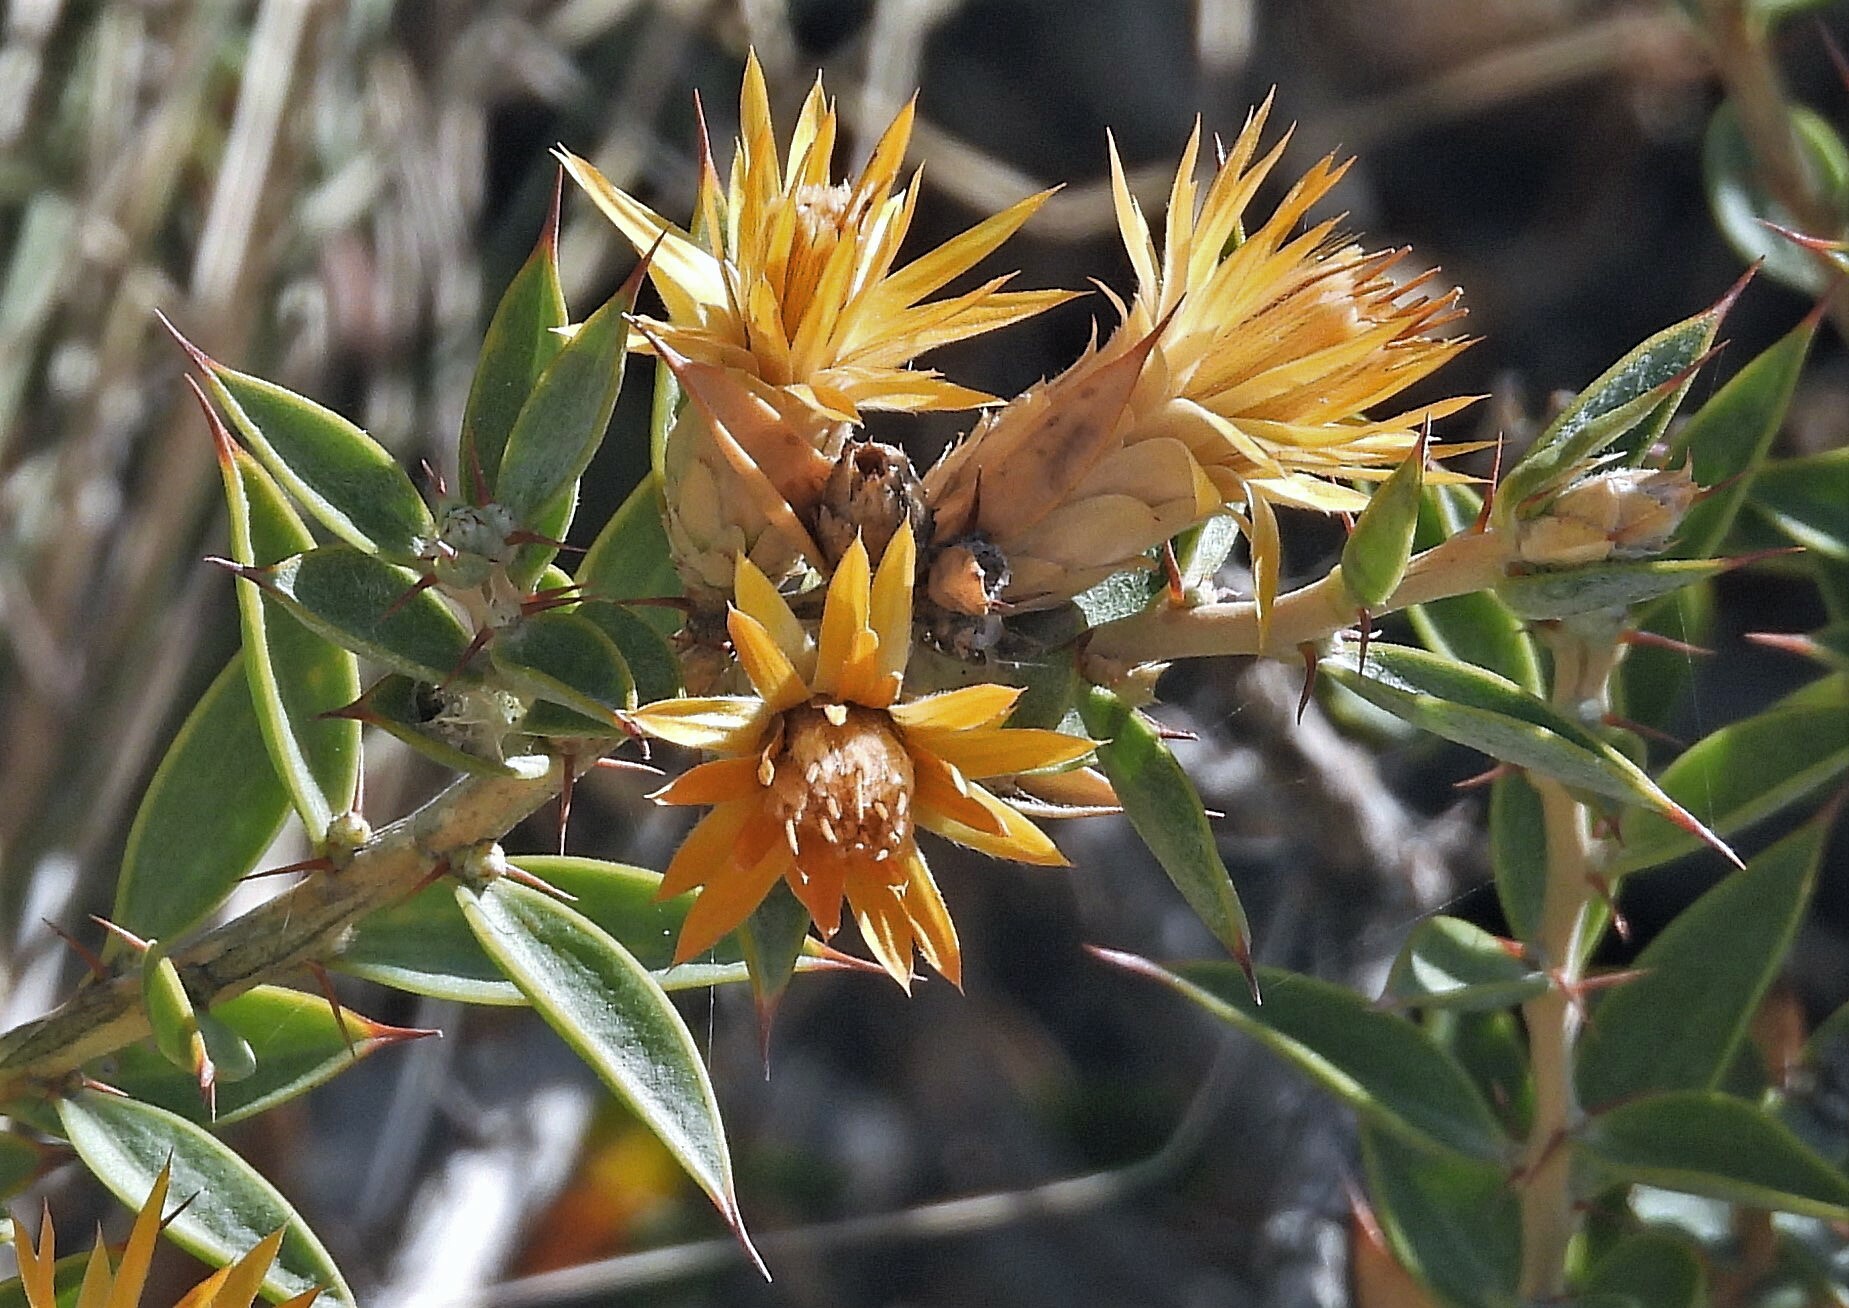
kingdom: Plantae
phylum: Tracheophyta
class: Magnoliopsida
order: Asterales
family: Asteraceae
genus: Chuquiraga
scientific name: Chuquiraga avellanedae
